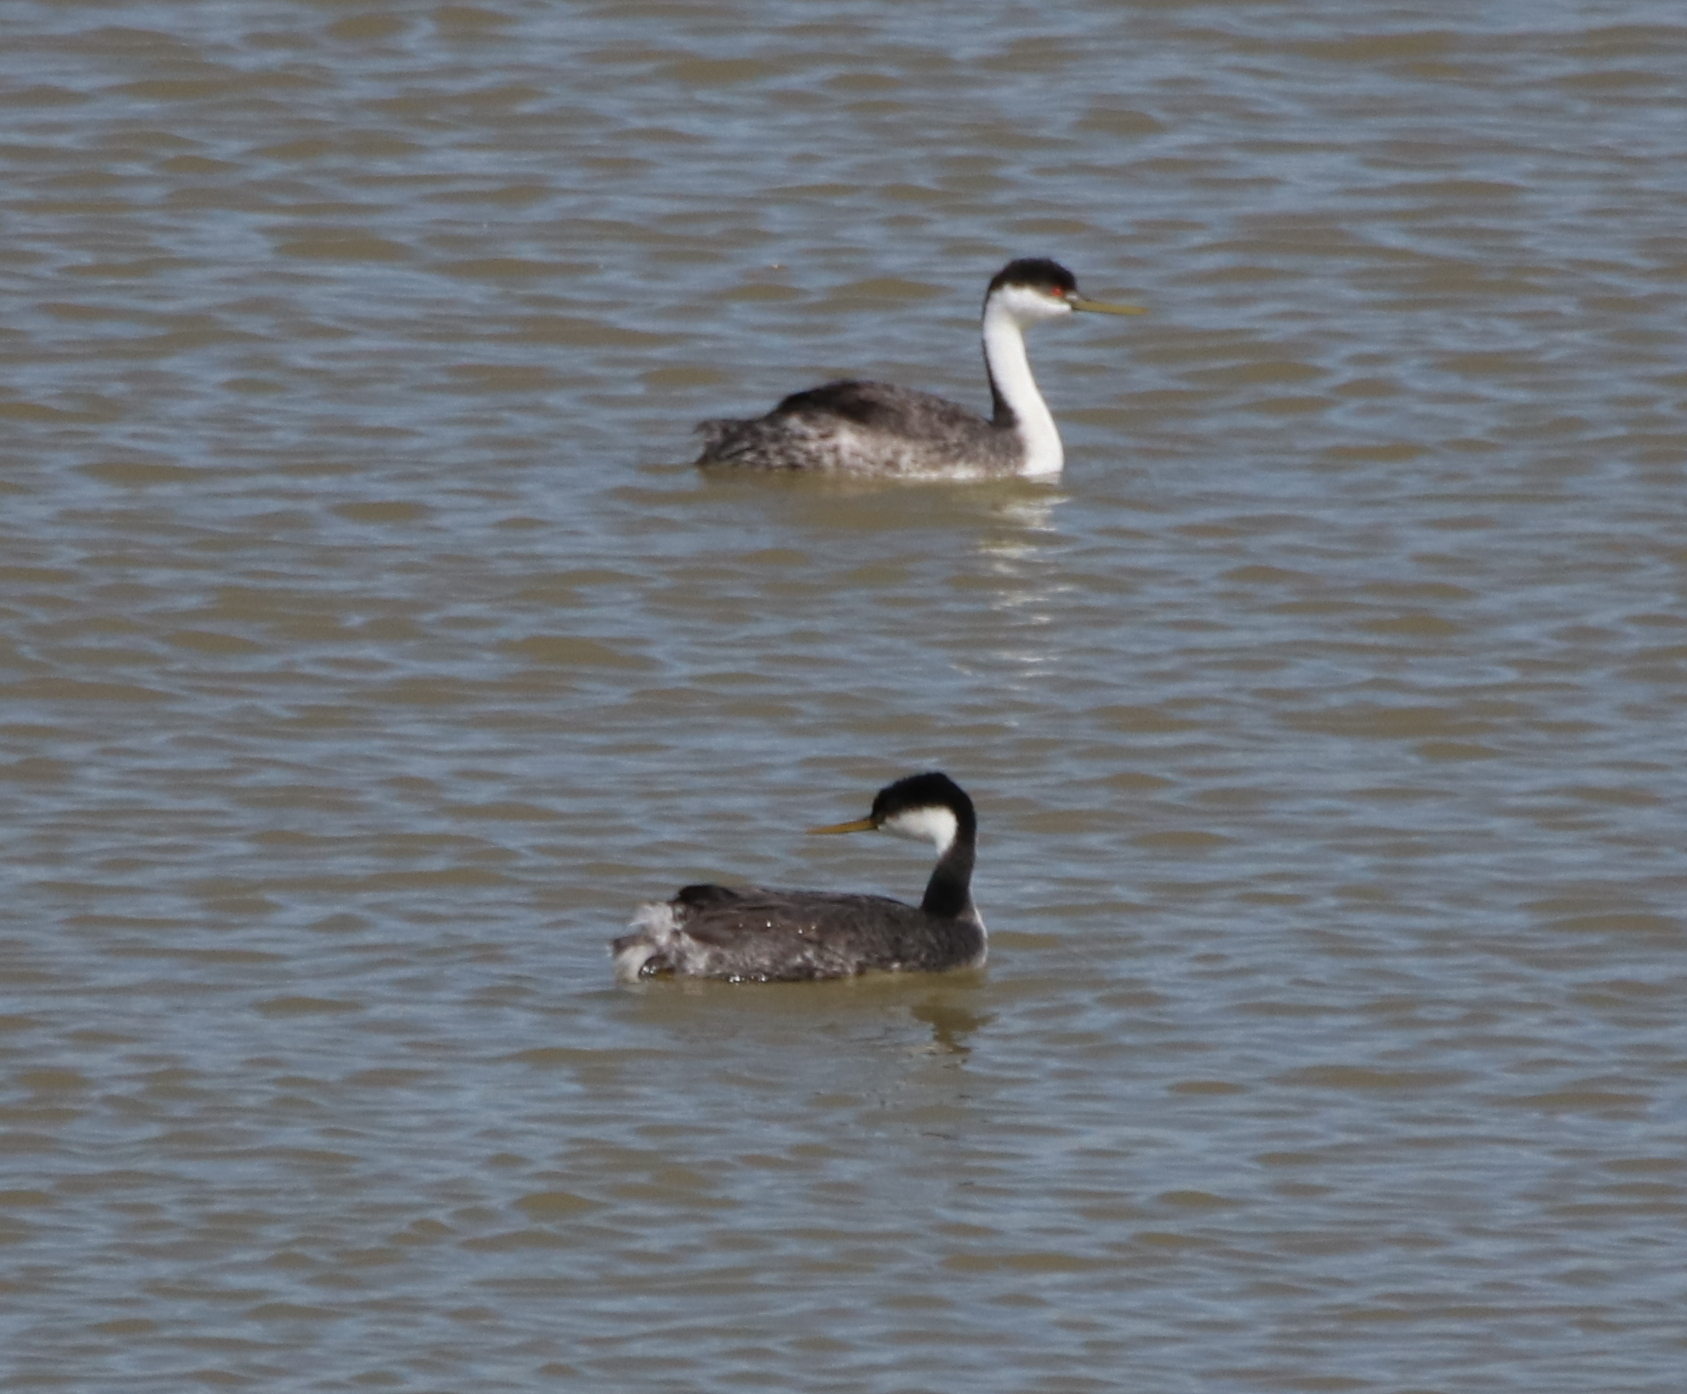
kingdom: Animalia
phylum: Chordata
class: Aves
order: Podicipediformes
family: Podicipedidae
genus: Aechmophorus
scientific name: Aechmophorus occidentalis
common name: Western grebe
